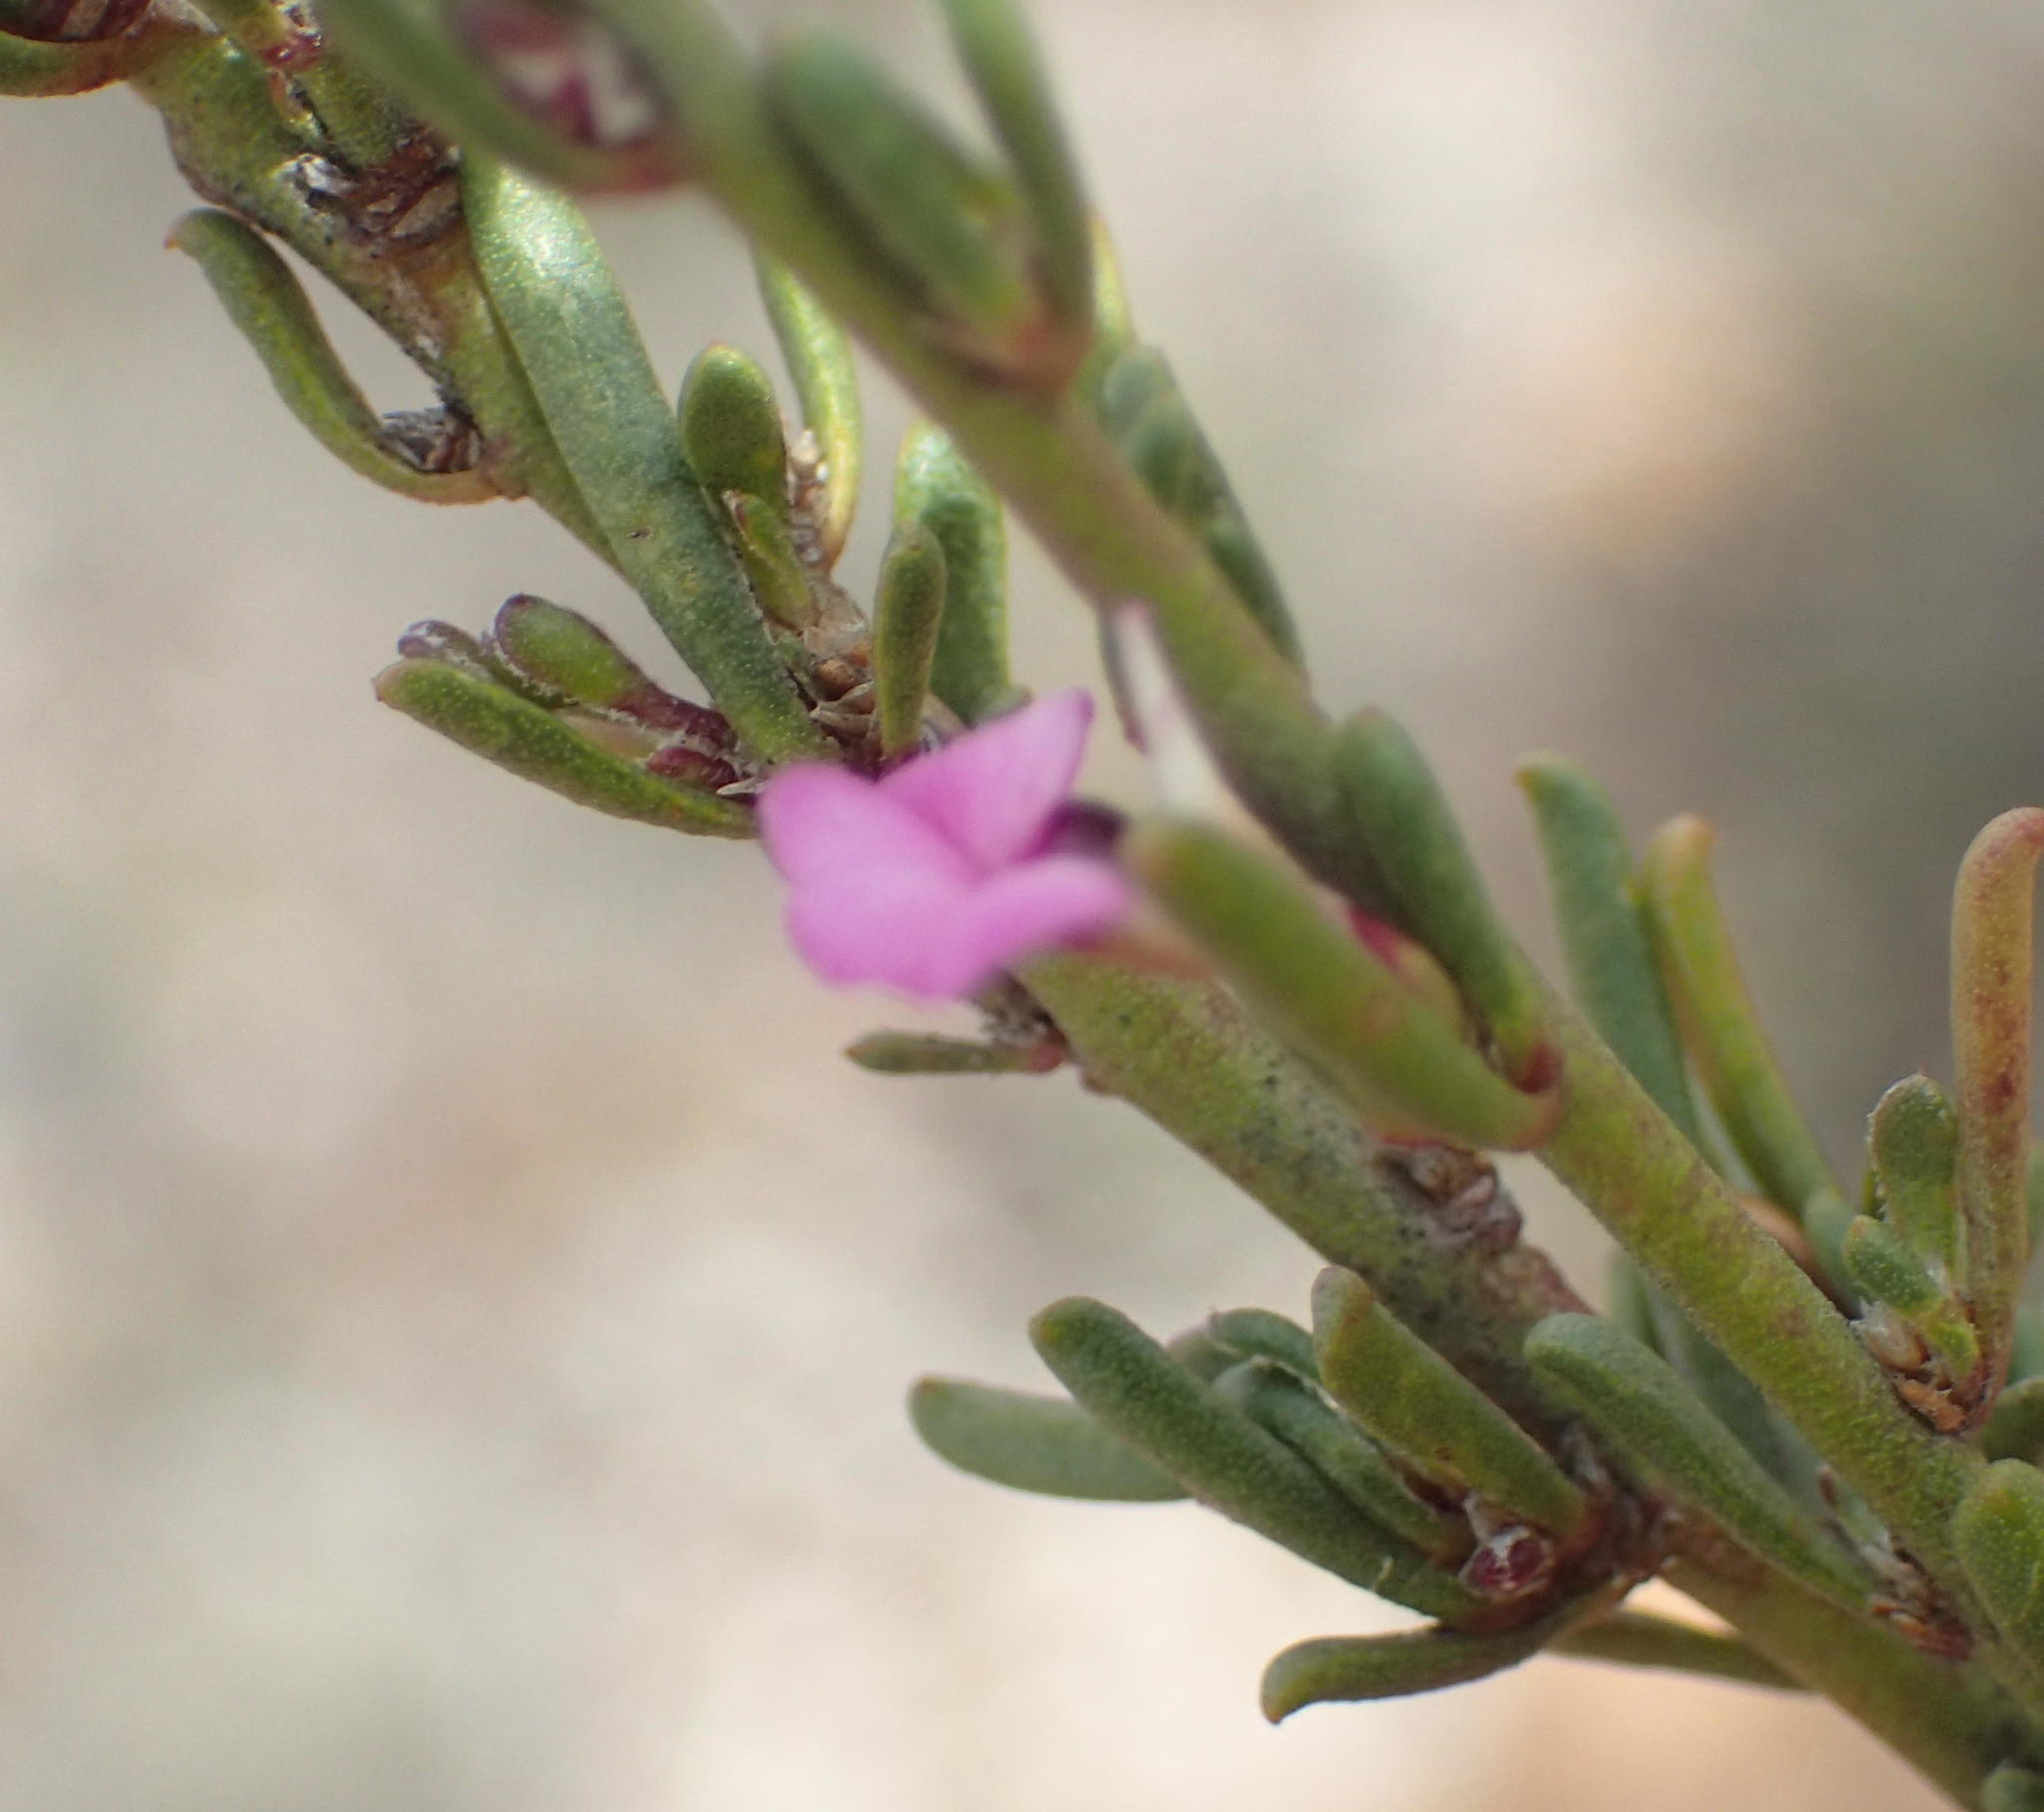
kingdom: Plantae
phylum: Tracheophyta
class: Magnoliopsida
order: Fabales
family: Polygalaceae
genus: Muraltia
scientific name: Muraltia dispersa
